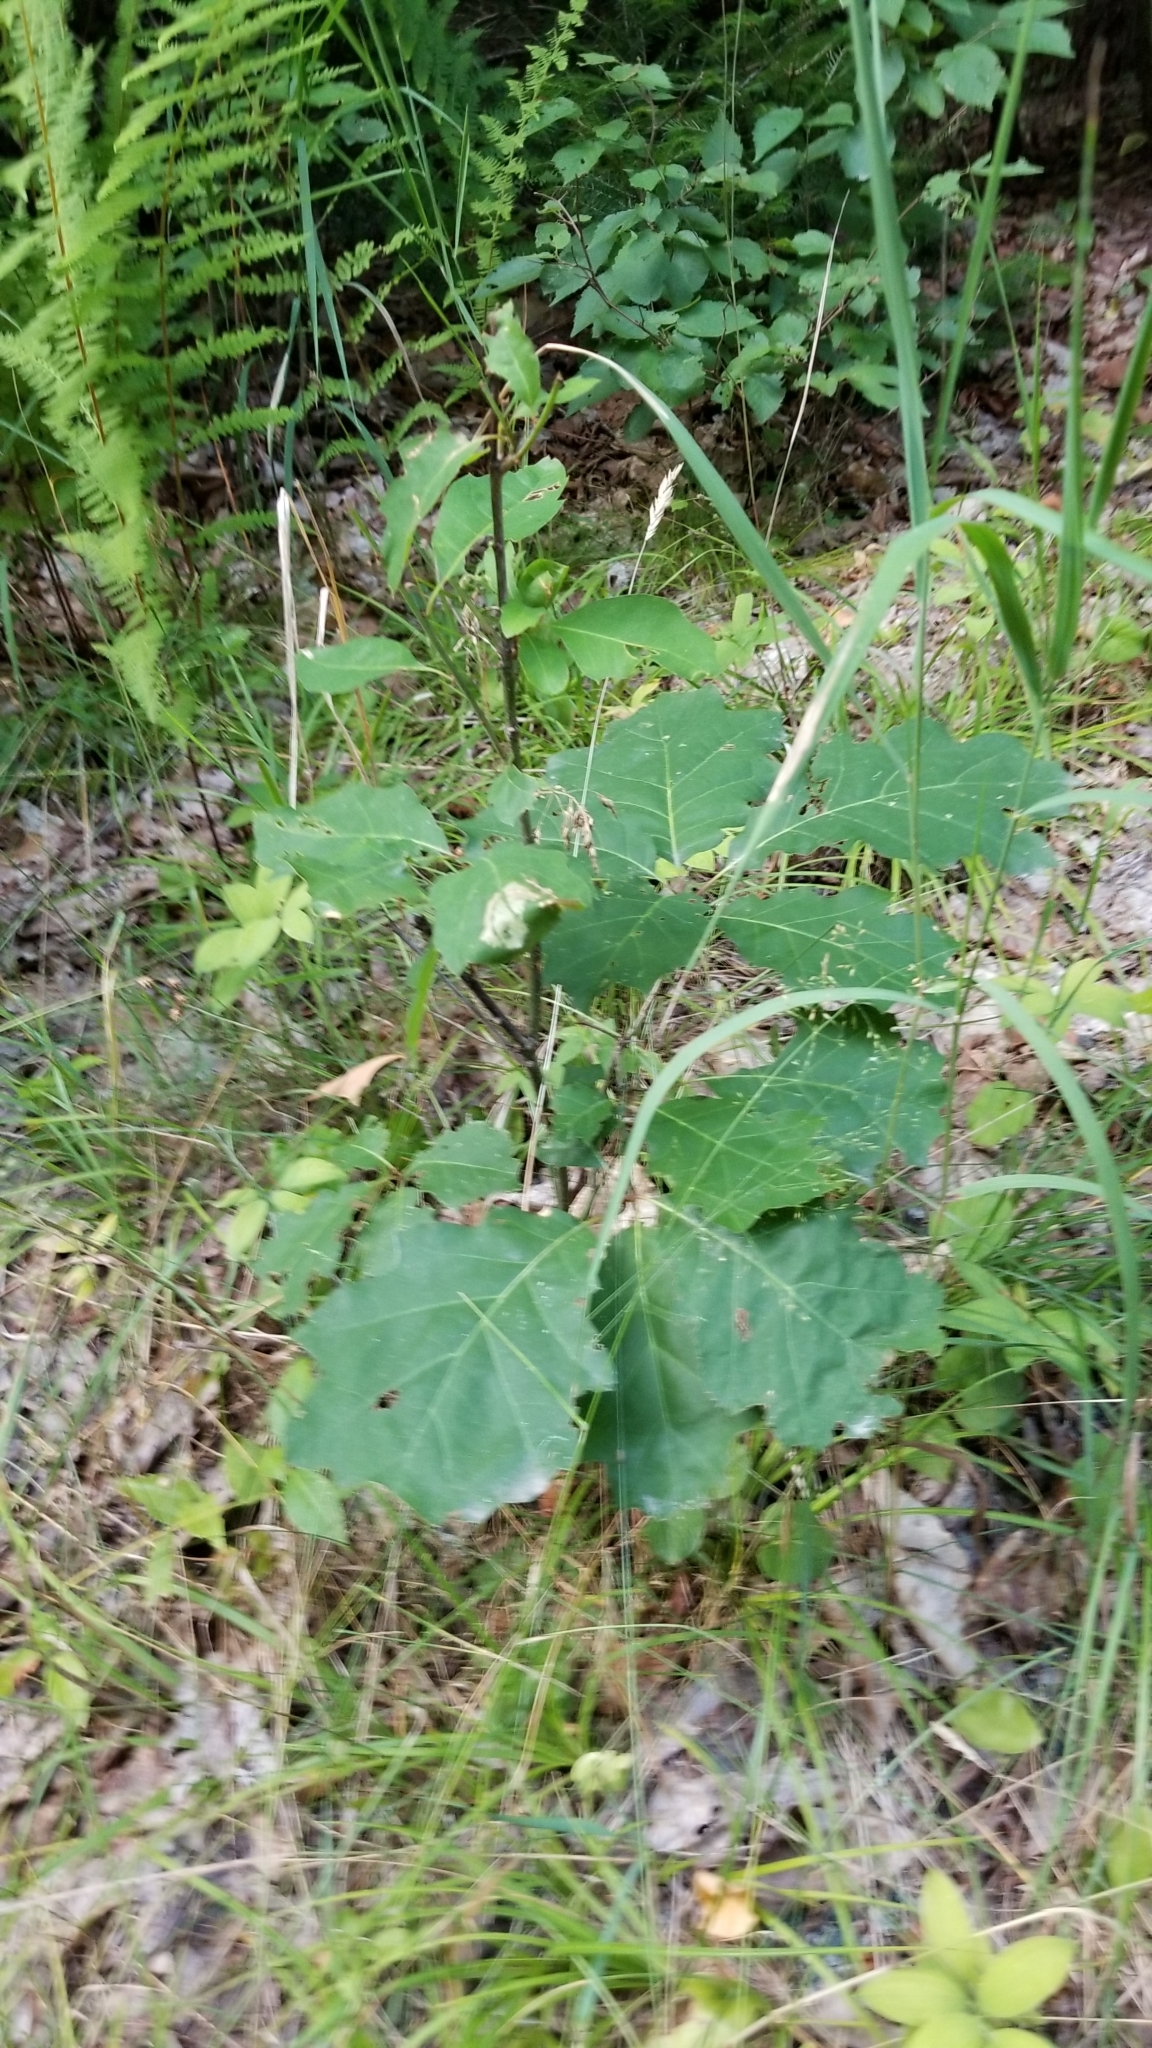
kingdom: Plantae
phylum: Tracheophyta
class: Magnoliopsida
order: Fagales
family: Fagaceae
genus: Quercus
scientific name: Quercus rubra
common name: Red oak
